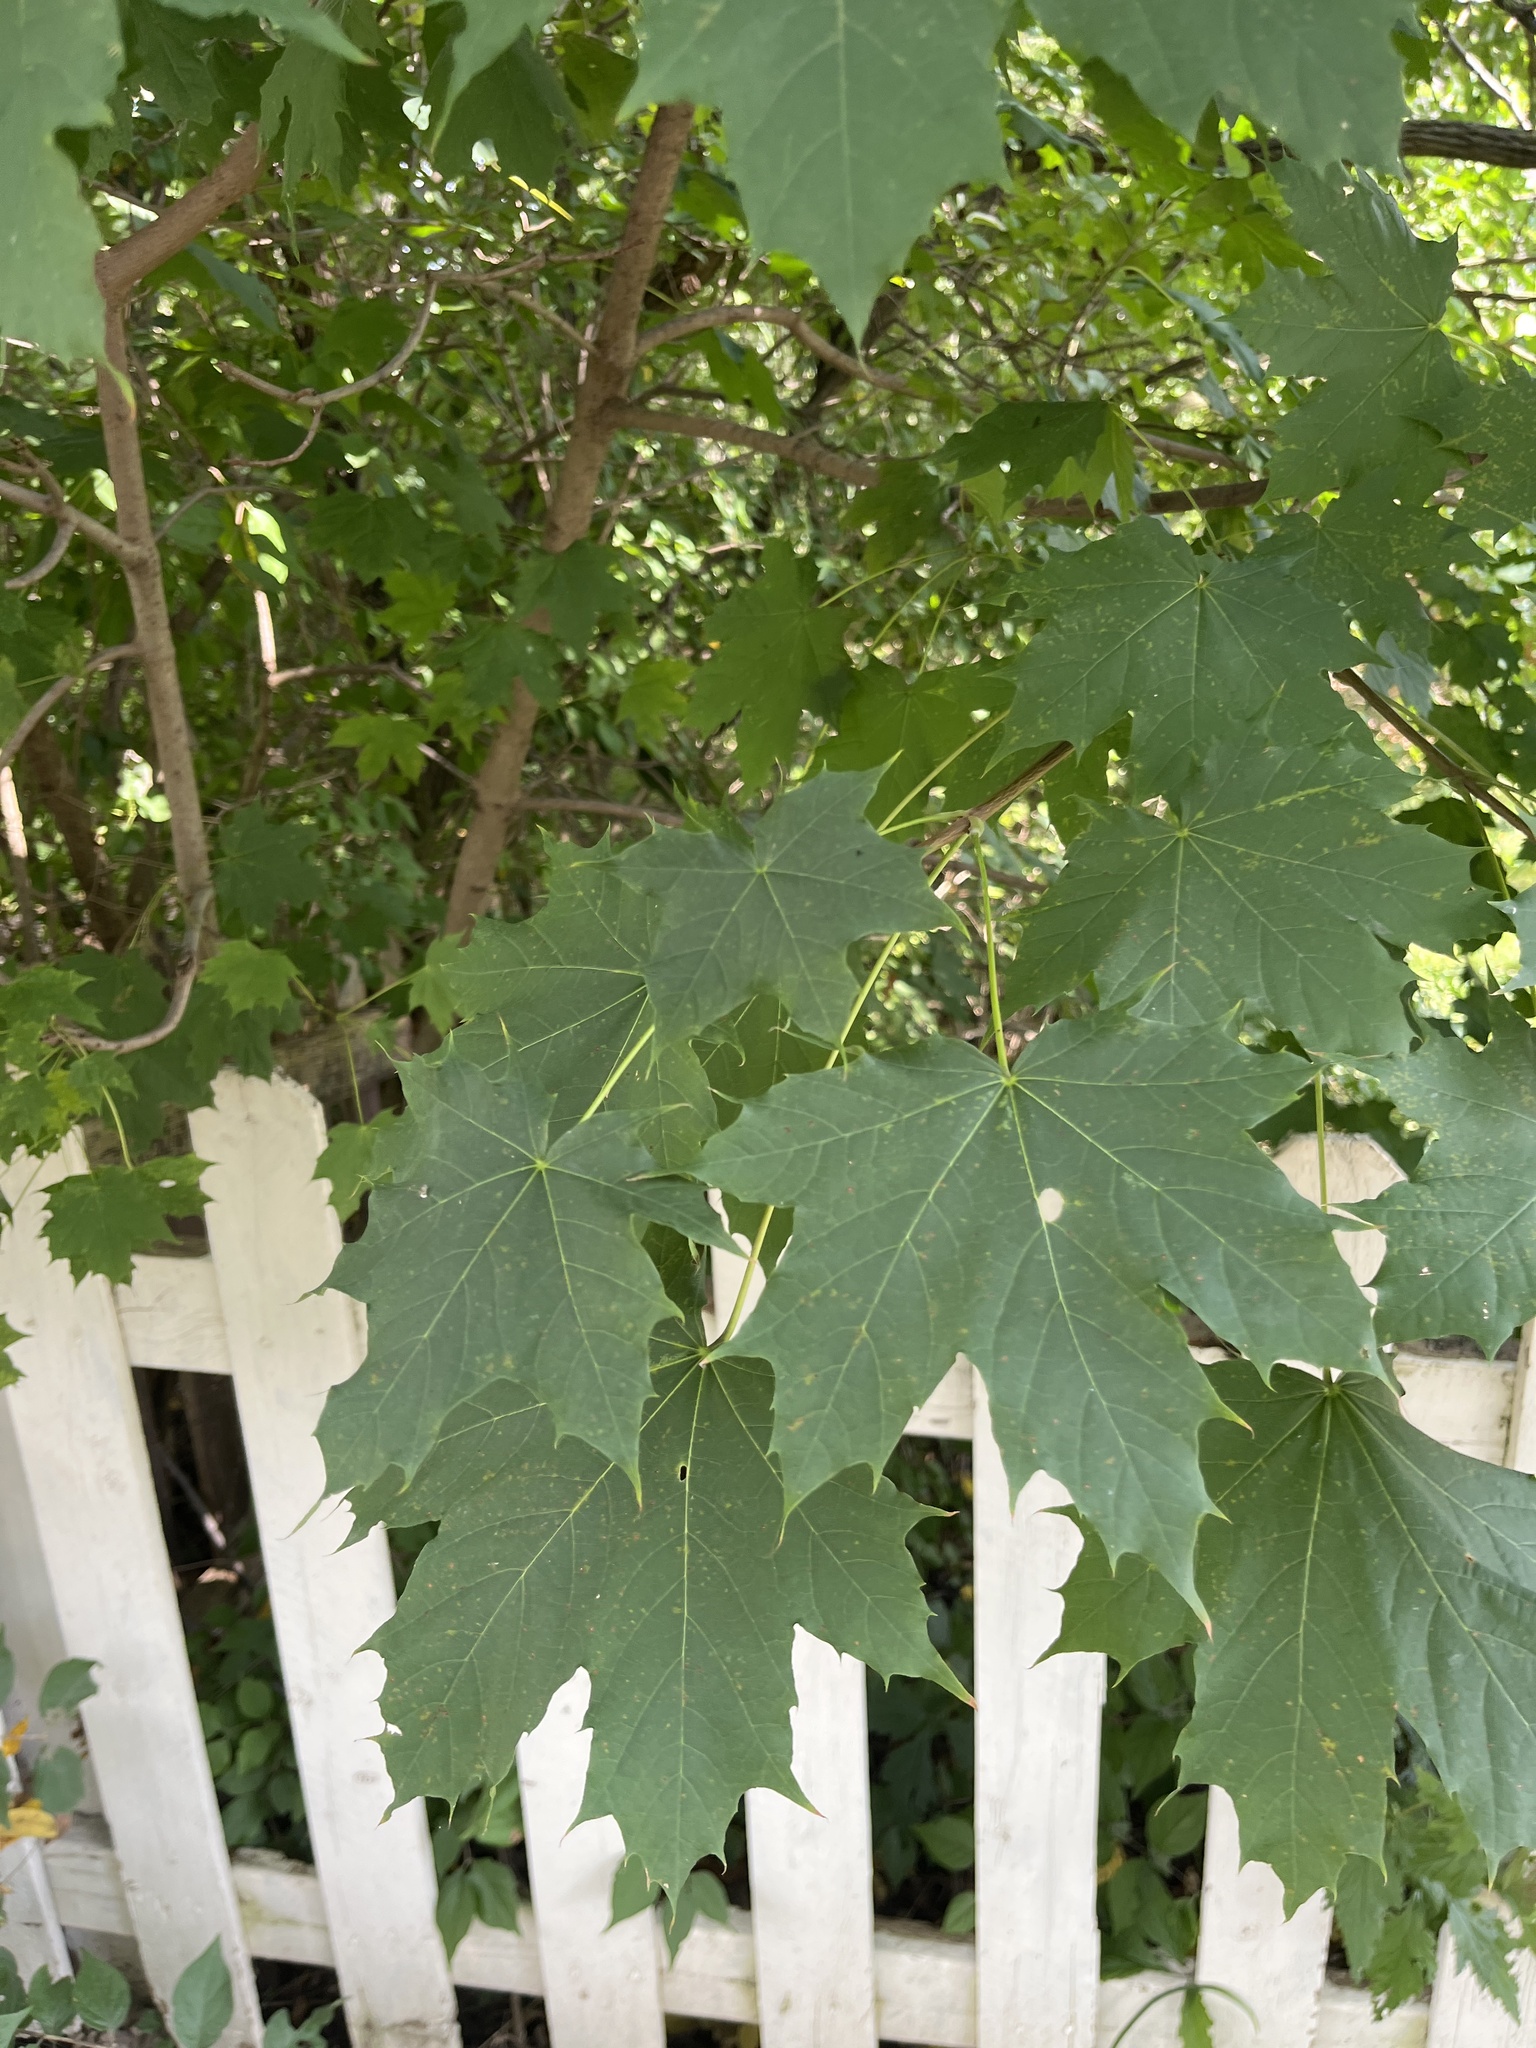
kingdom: Plantae
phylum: Tracheophyta
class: Magnoliopsida
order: Sapindales
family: Sapindaceae
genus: Acer
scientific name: Acer platanoides
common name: Norway maple
